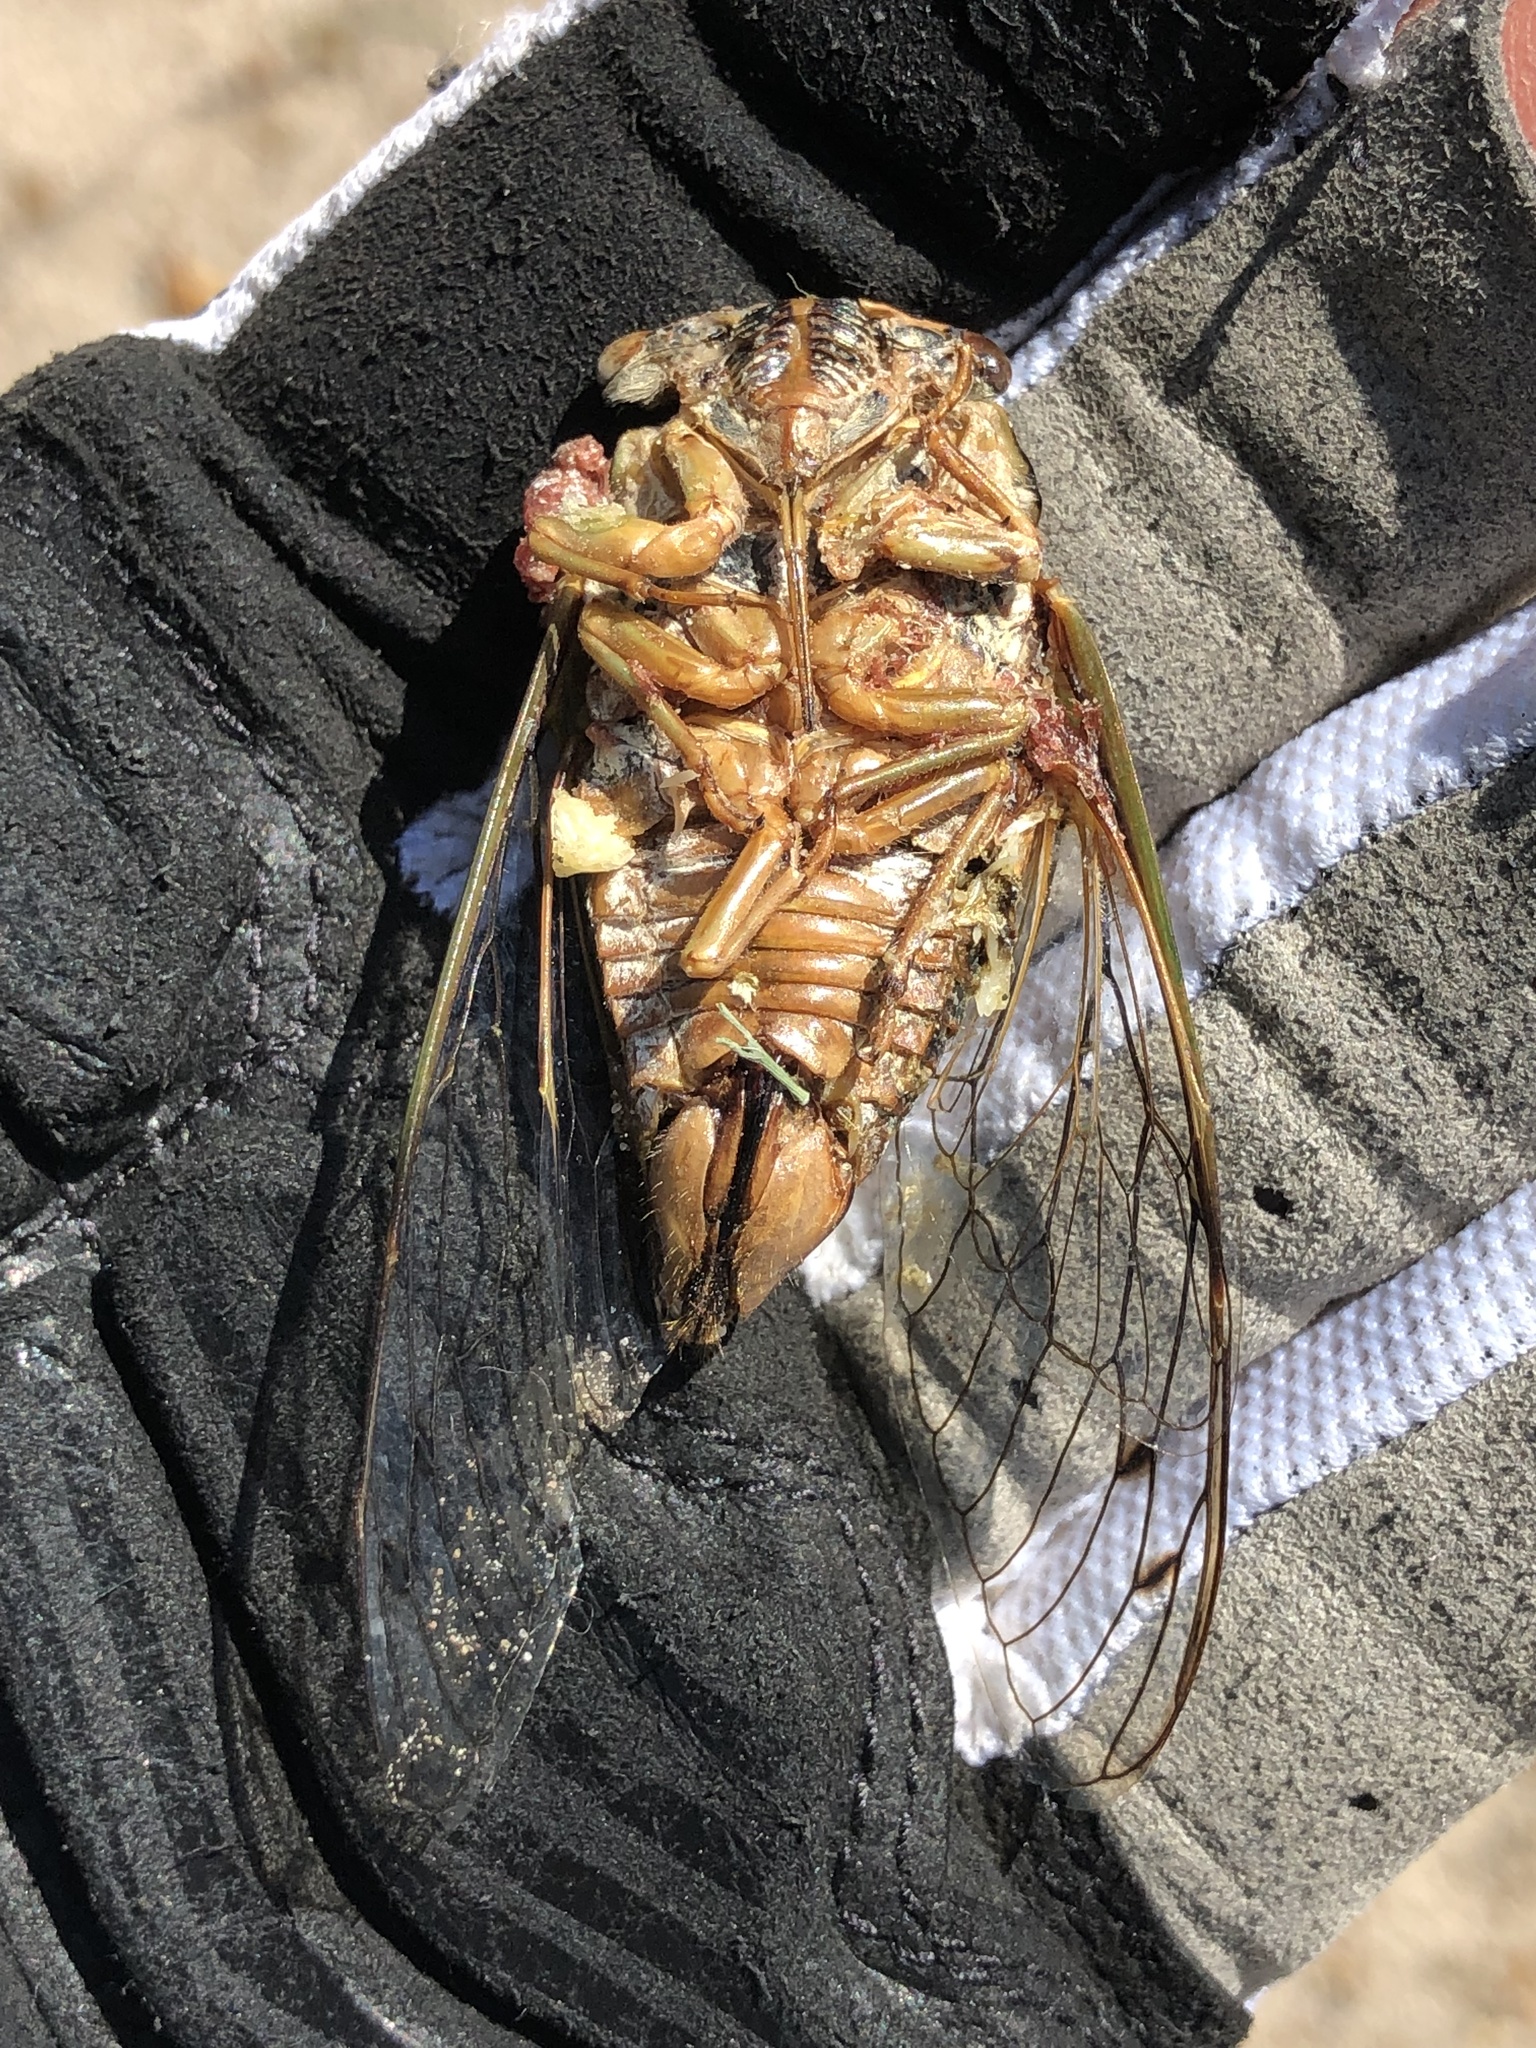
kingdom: Animalia
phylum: Arthropoda
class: Insecta
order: Hemiptera
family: Cicadidae
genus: Megatibicen
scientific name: Megatibicen resh
